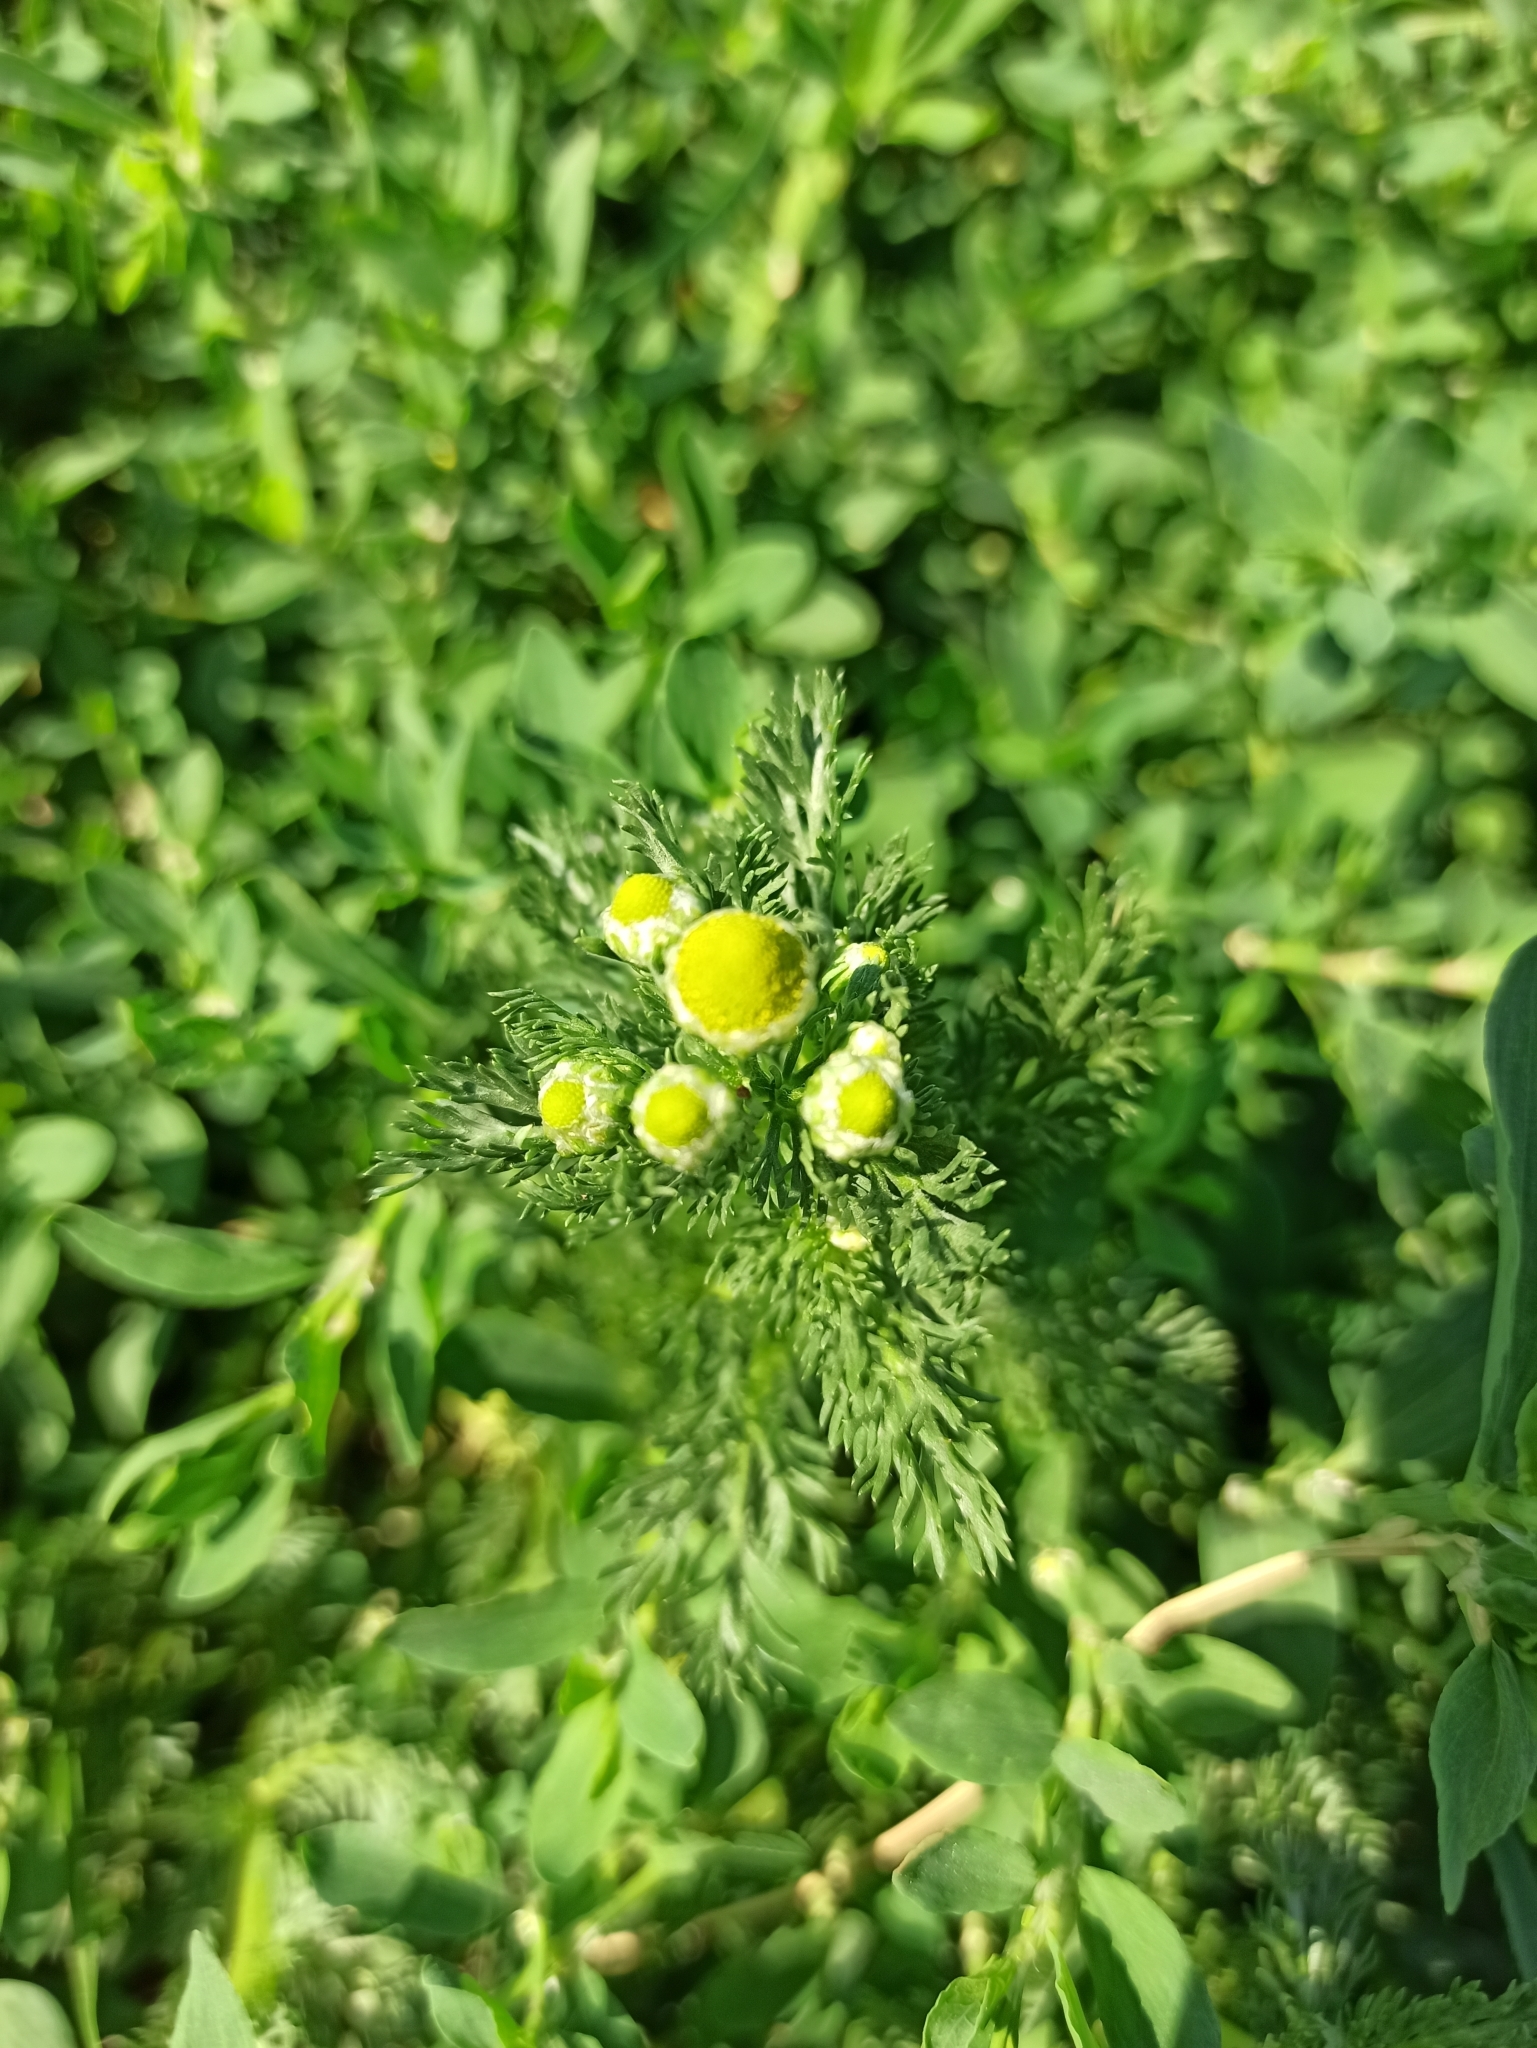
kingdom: Plantae
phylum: Tracheophyta
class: Magnoliopsida
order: Asterales
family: Asteraceae
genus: Matricaria
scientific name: Matricaria discoidea
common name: Disc mayweed
